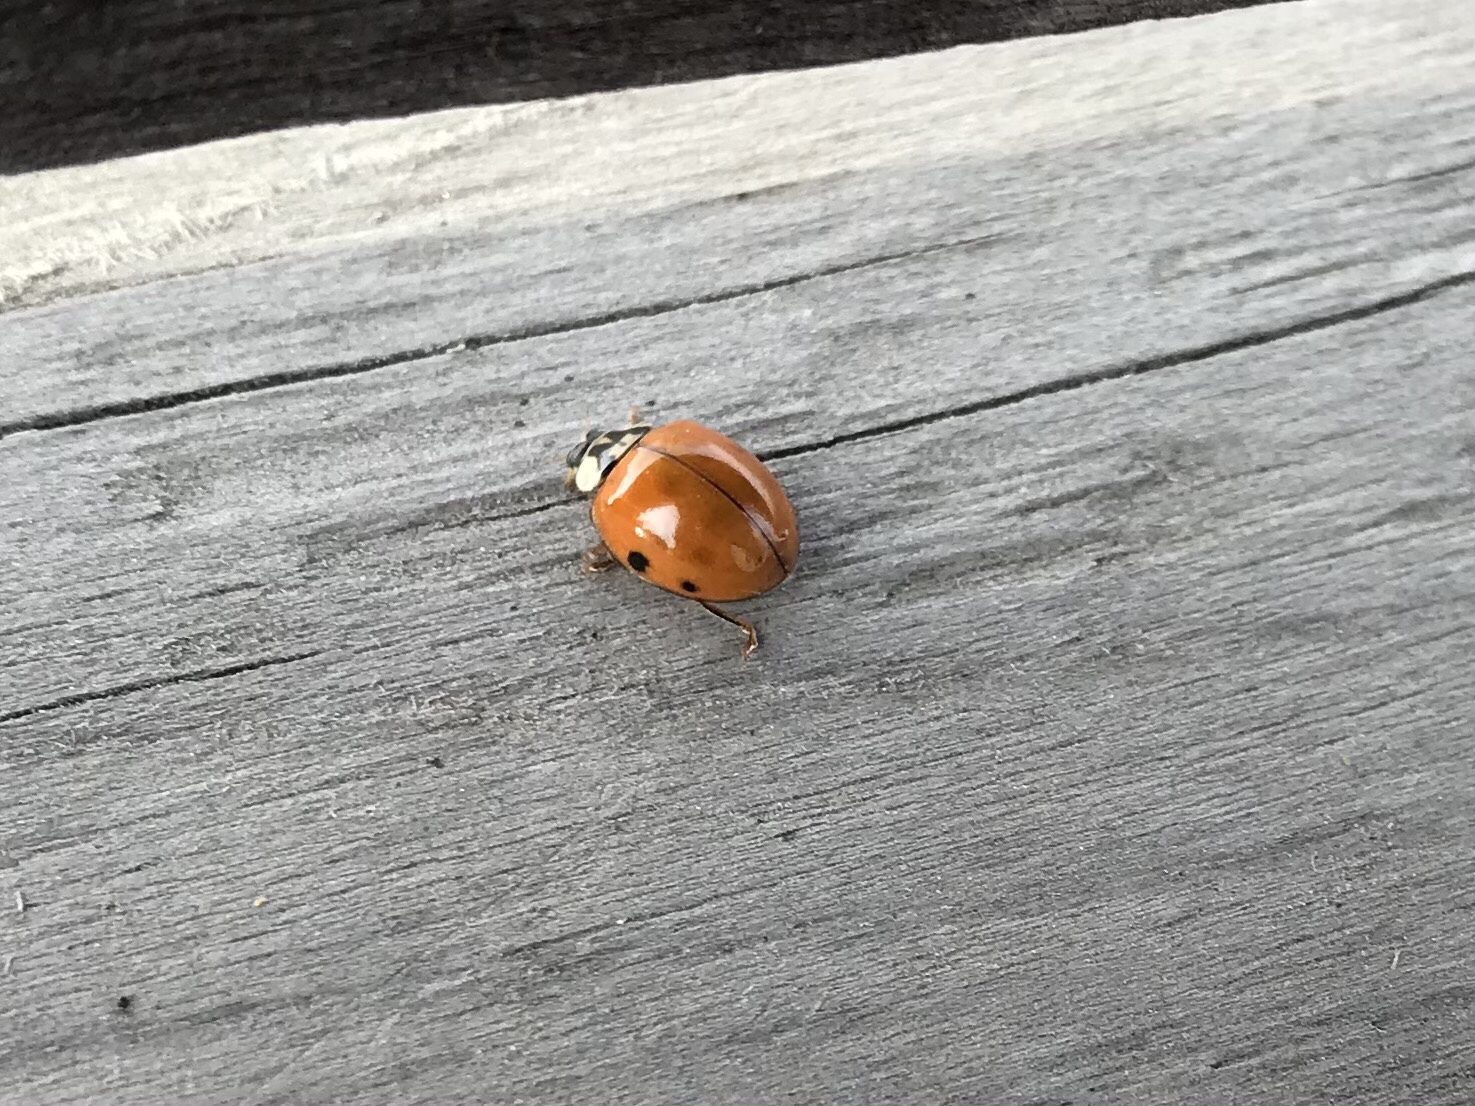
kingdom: Animalia
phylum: Arthropoda
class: Insecta
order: Coleoptera
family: Coccinellidae
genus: Harmonia
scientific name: Harmonia axyridis
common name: Harlequin ladybird
